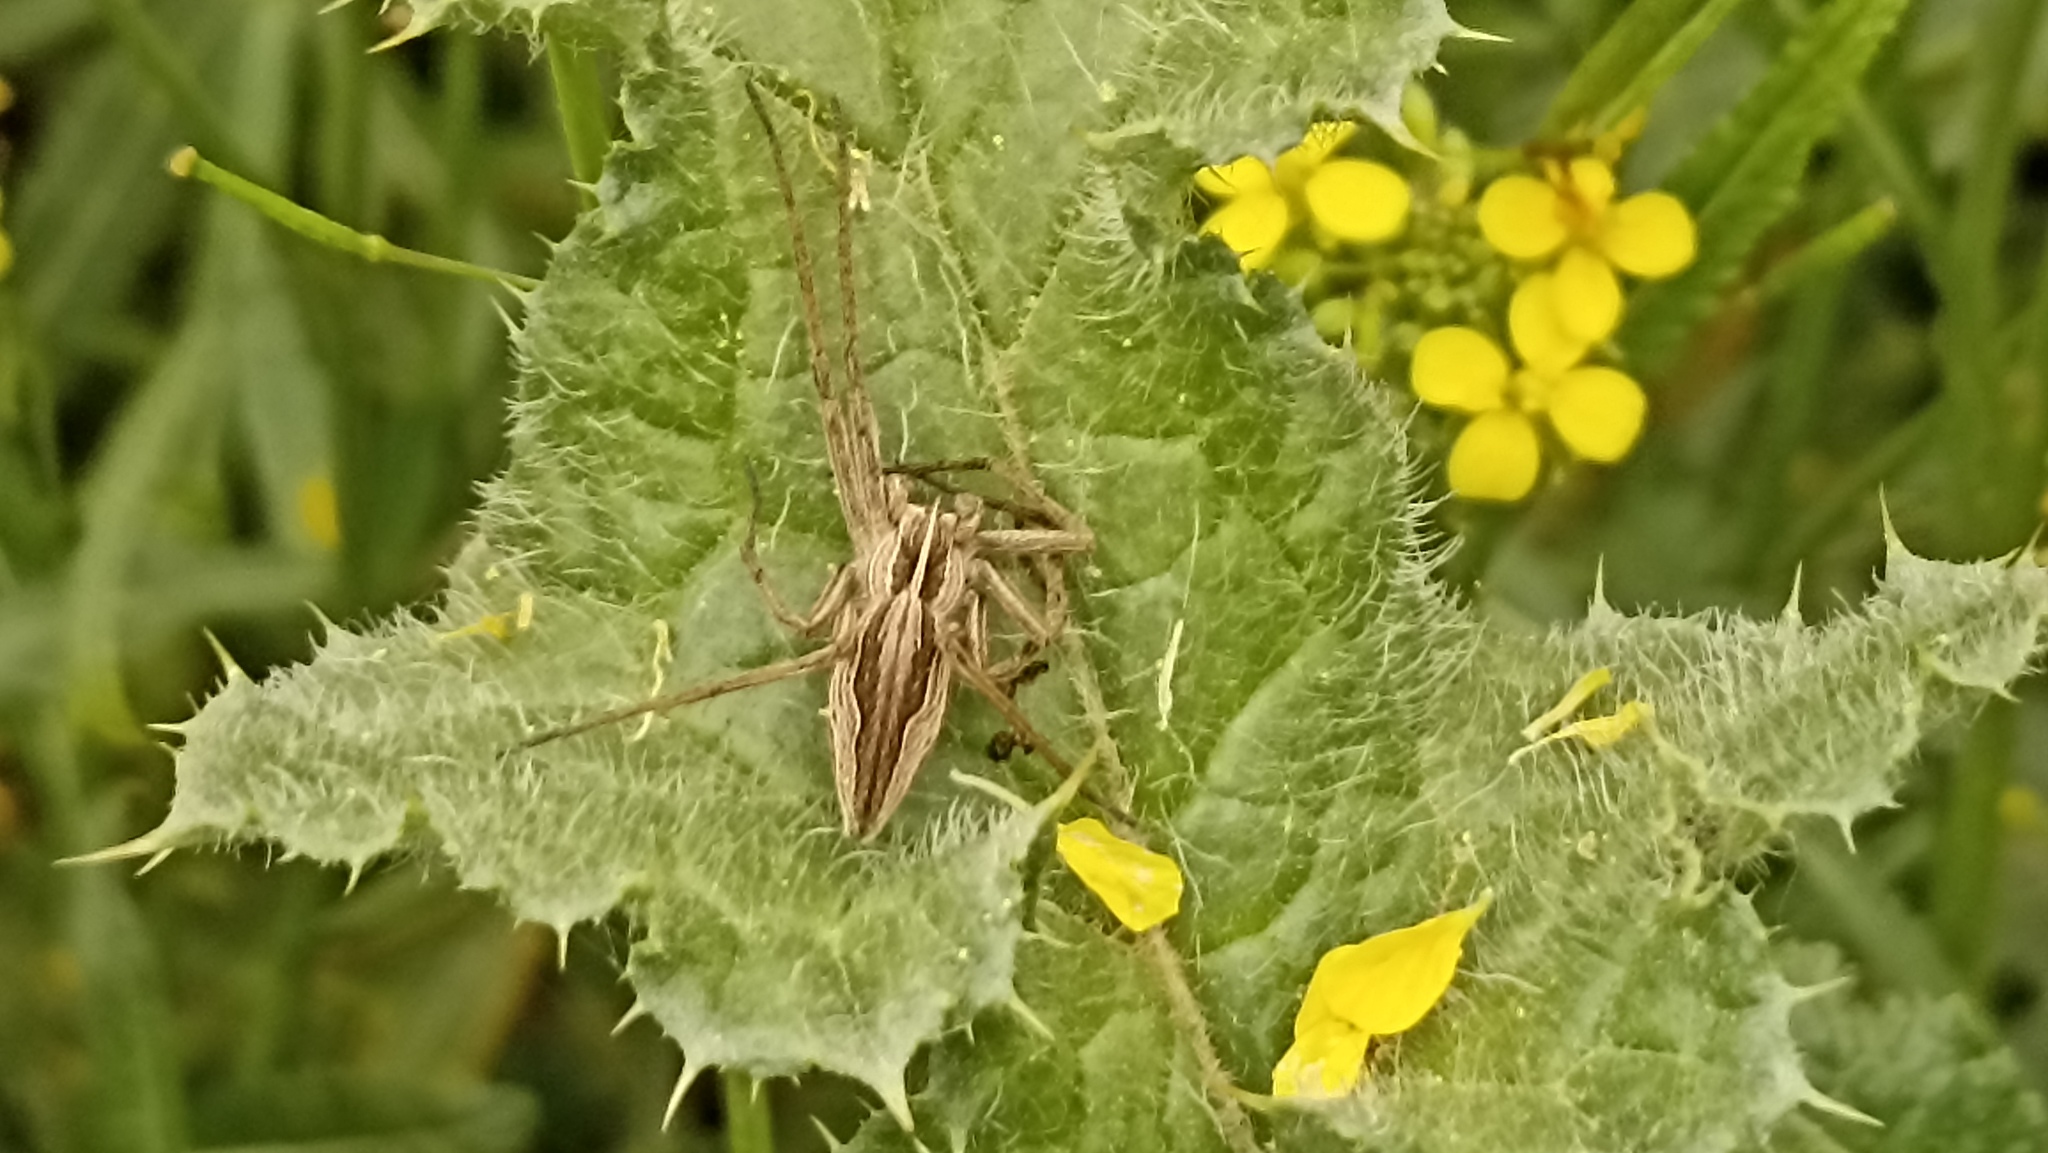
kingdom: Animalia
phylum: Arthropoda
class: Arachnida
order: Araneae
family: Pisauridae
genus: Pisaura
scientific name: Pisaura mirabilis
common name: Tent spider
